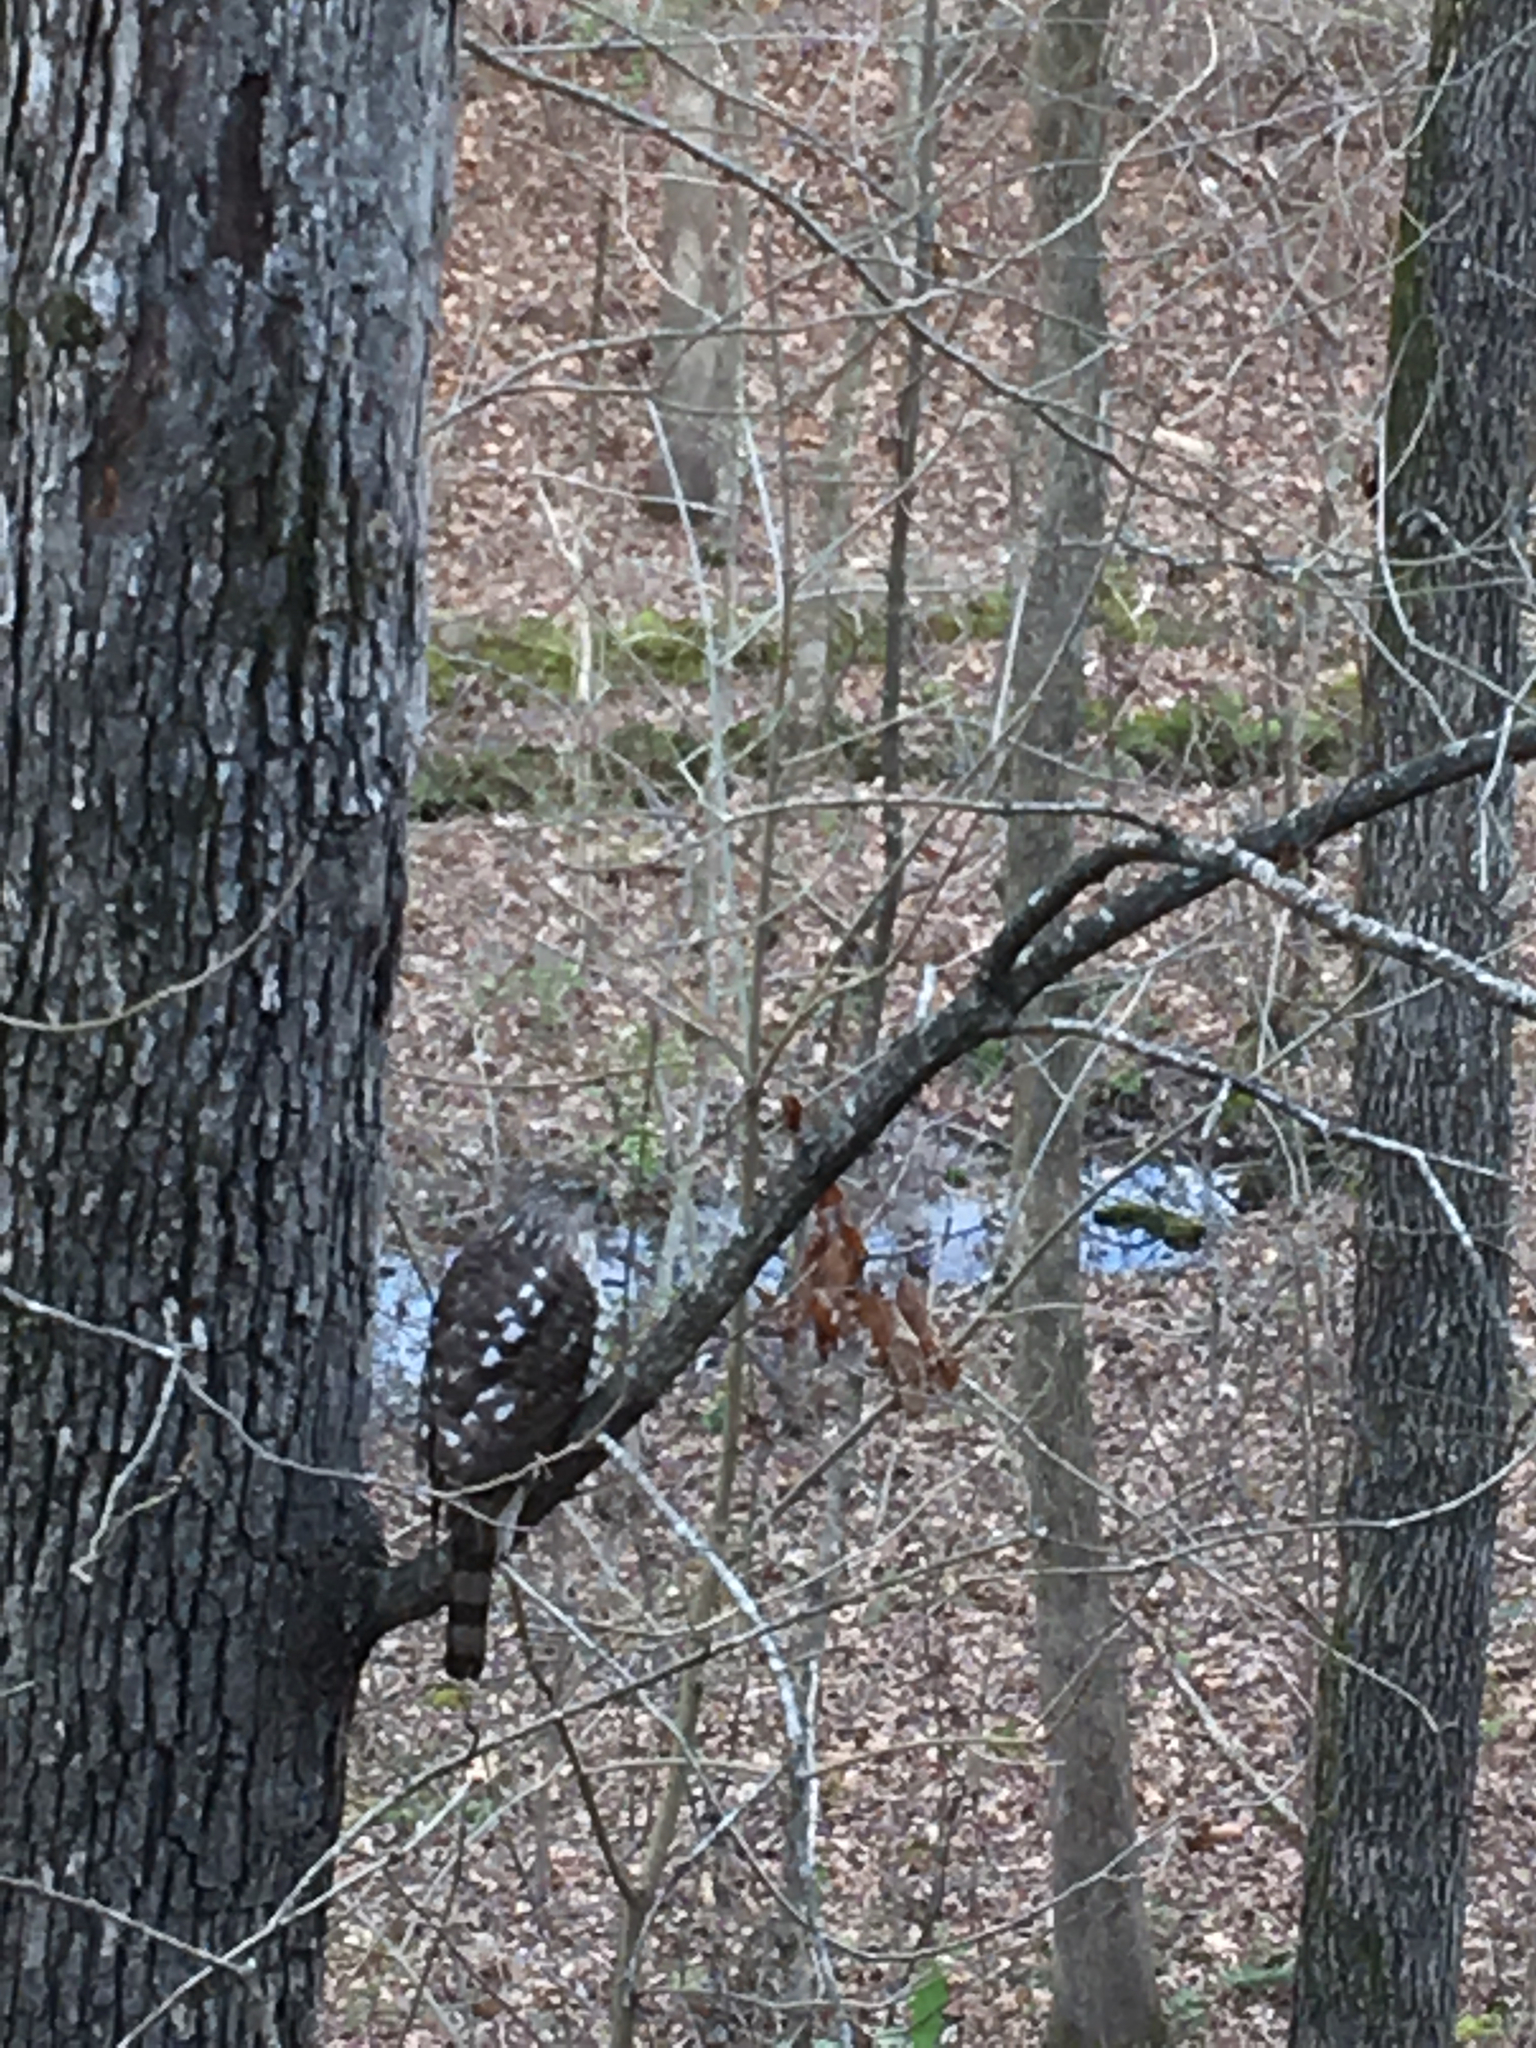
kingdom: Animalia
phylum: Chordata
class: Aves
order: Accipitriformes
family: Accipitridae
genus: Accipiter
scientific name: Accipiter
